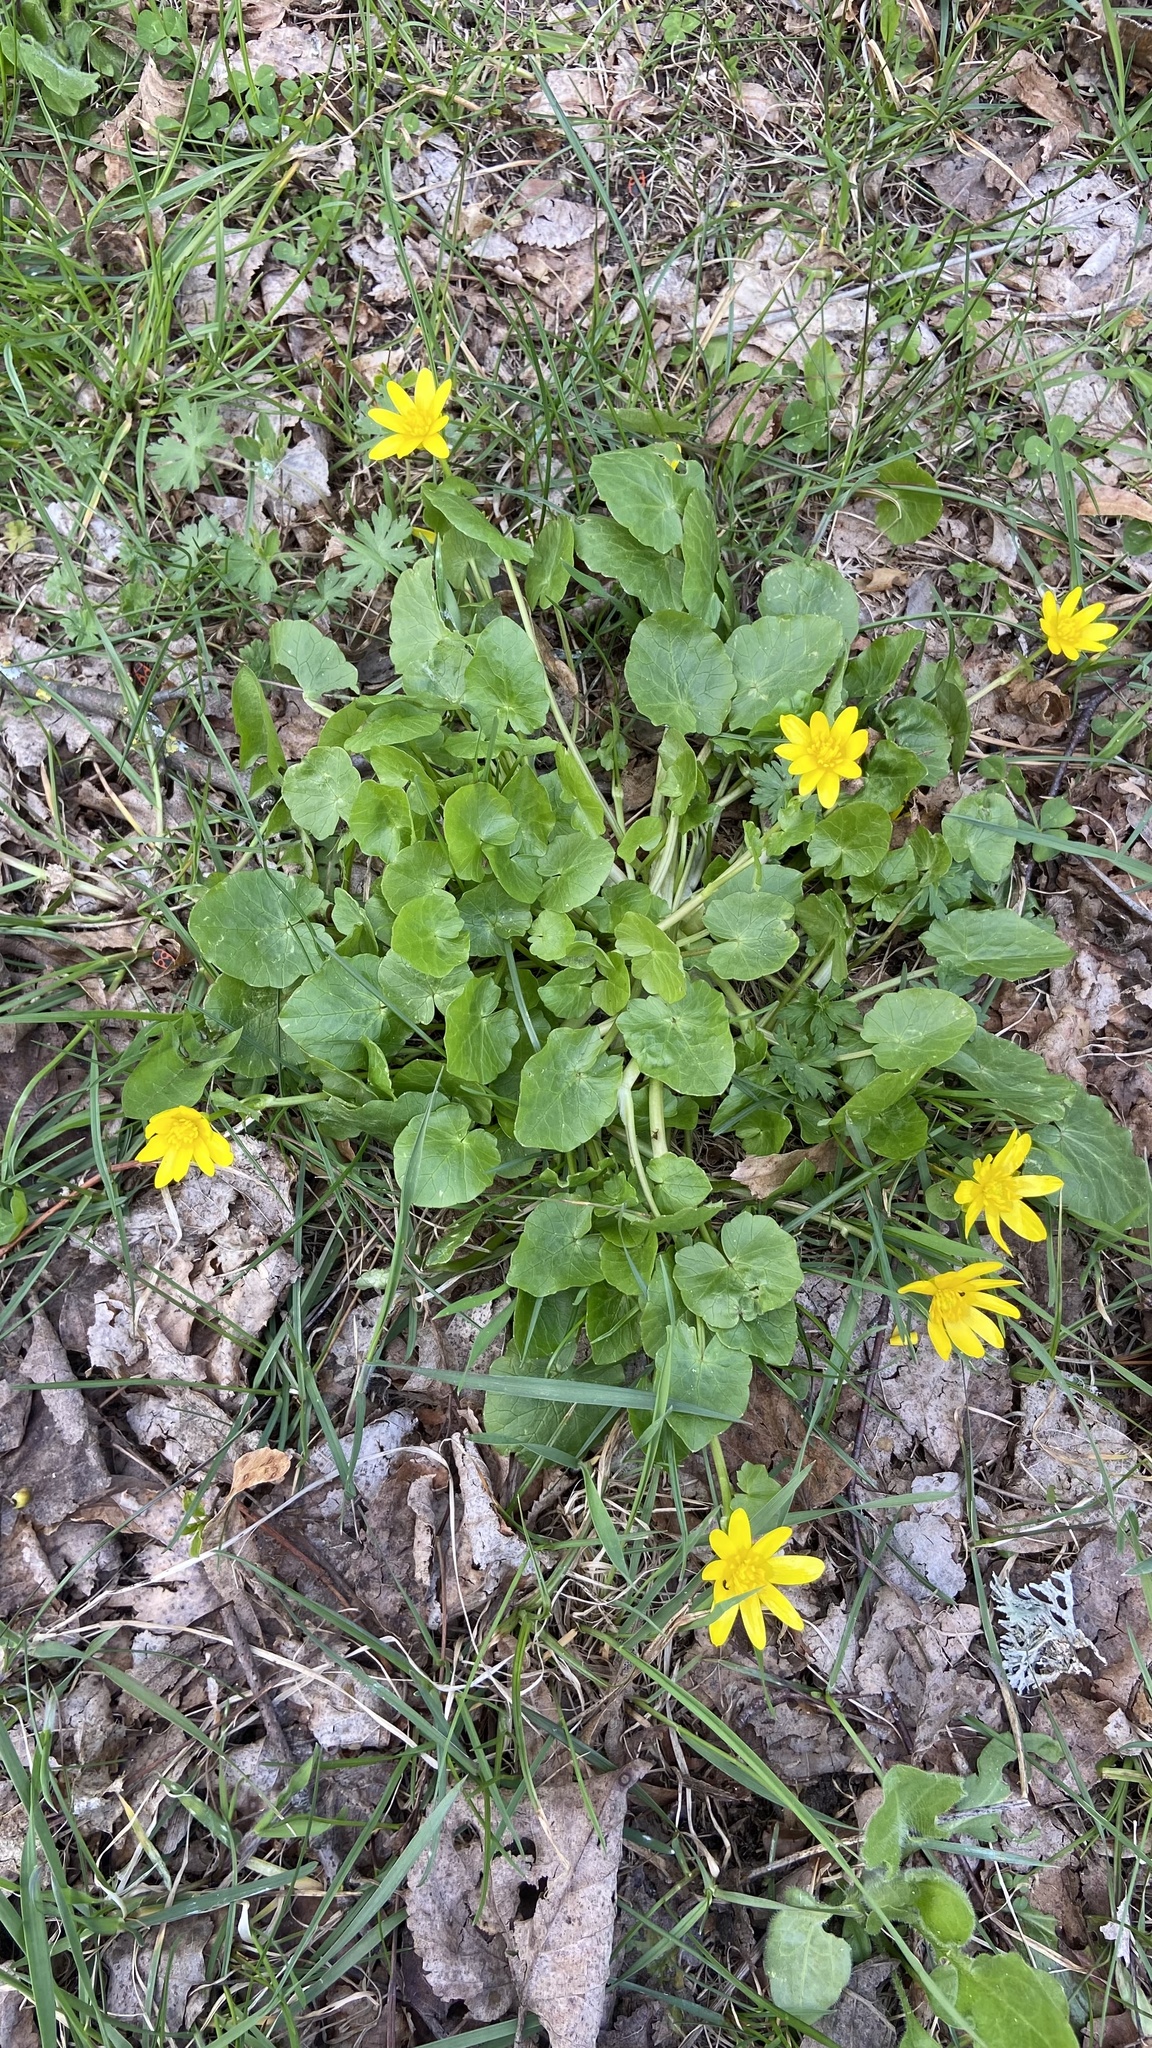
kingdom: Plantae
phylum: Tracheophyta
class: Magnoliopsida
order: Ranunculales
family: Ranunculaceae
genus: Ficaria
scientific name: Ficaria verna
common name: Lesser celandine
